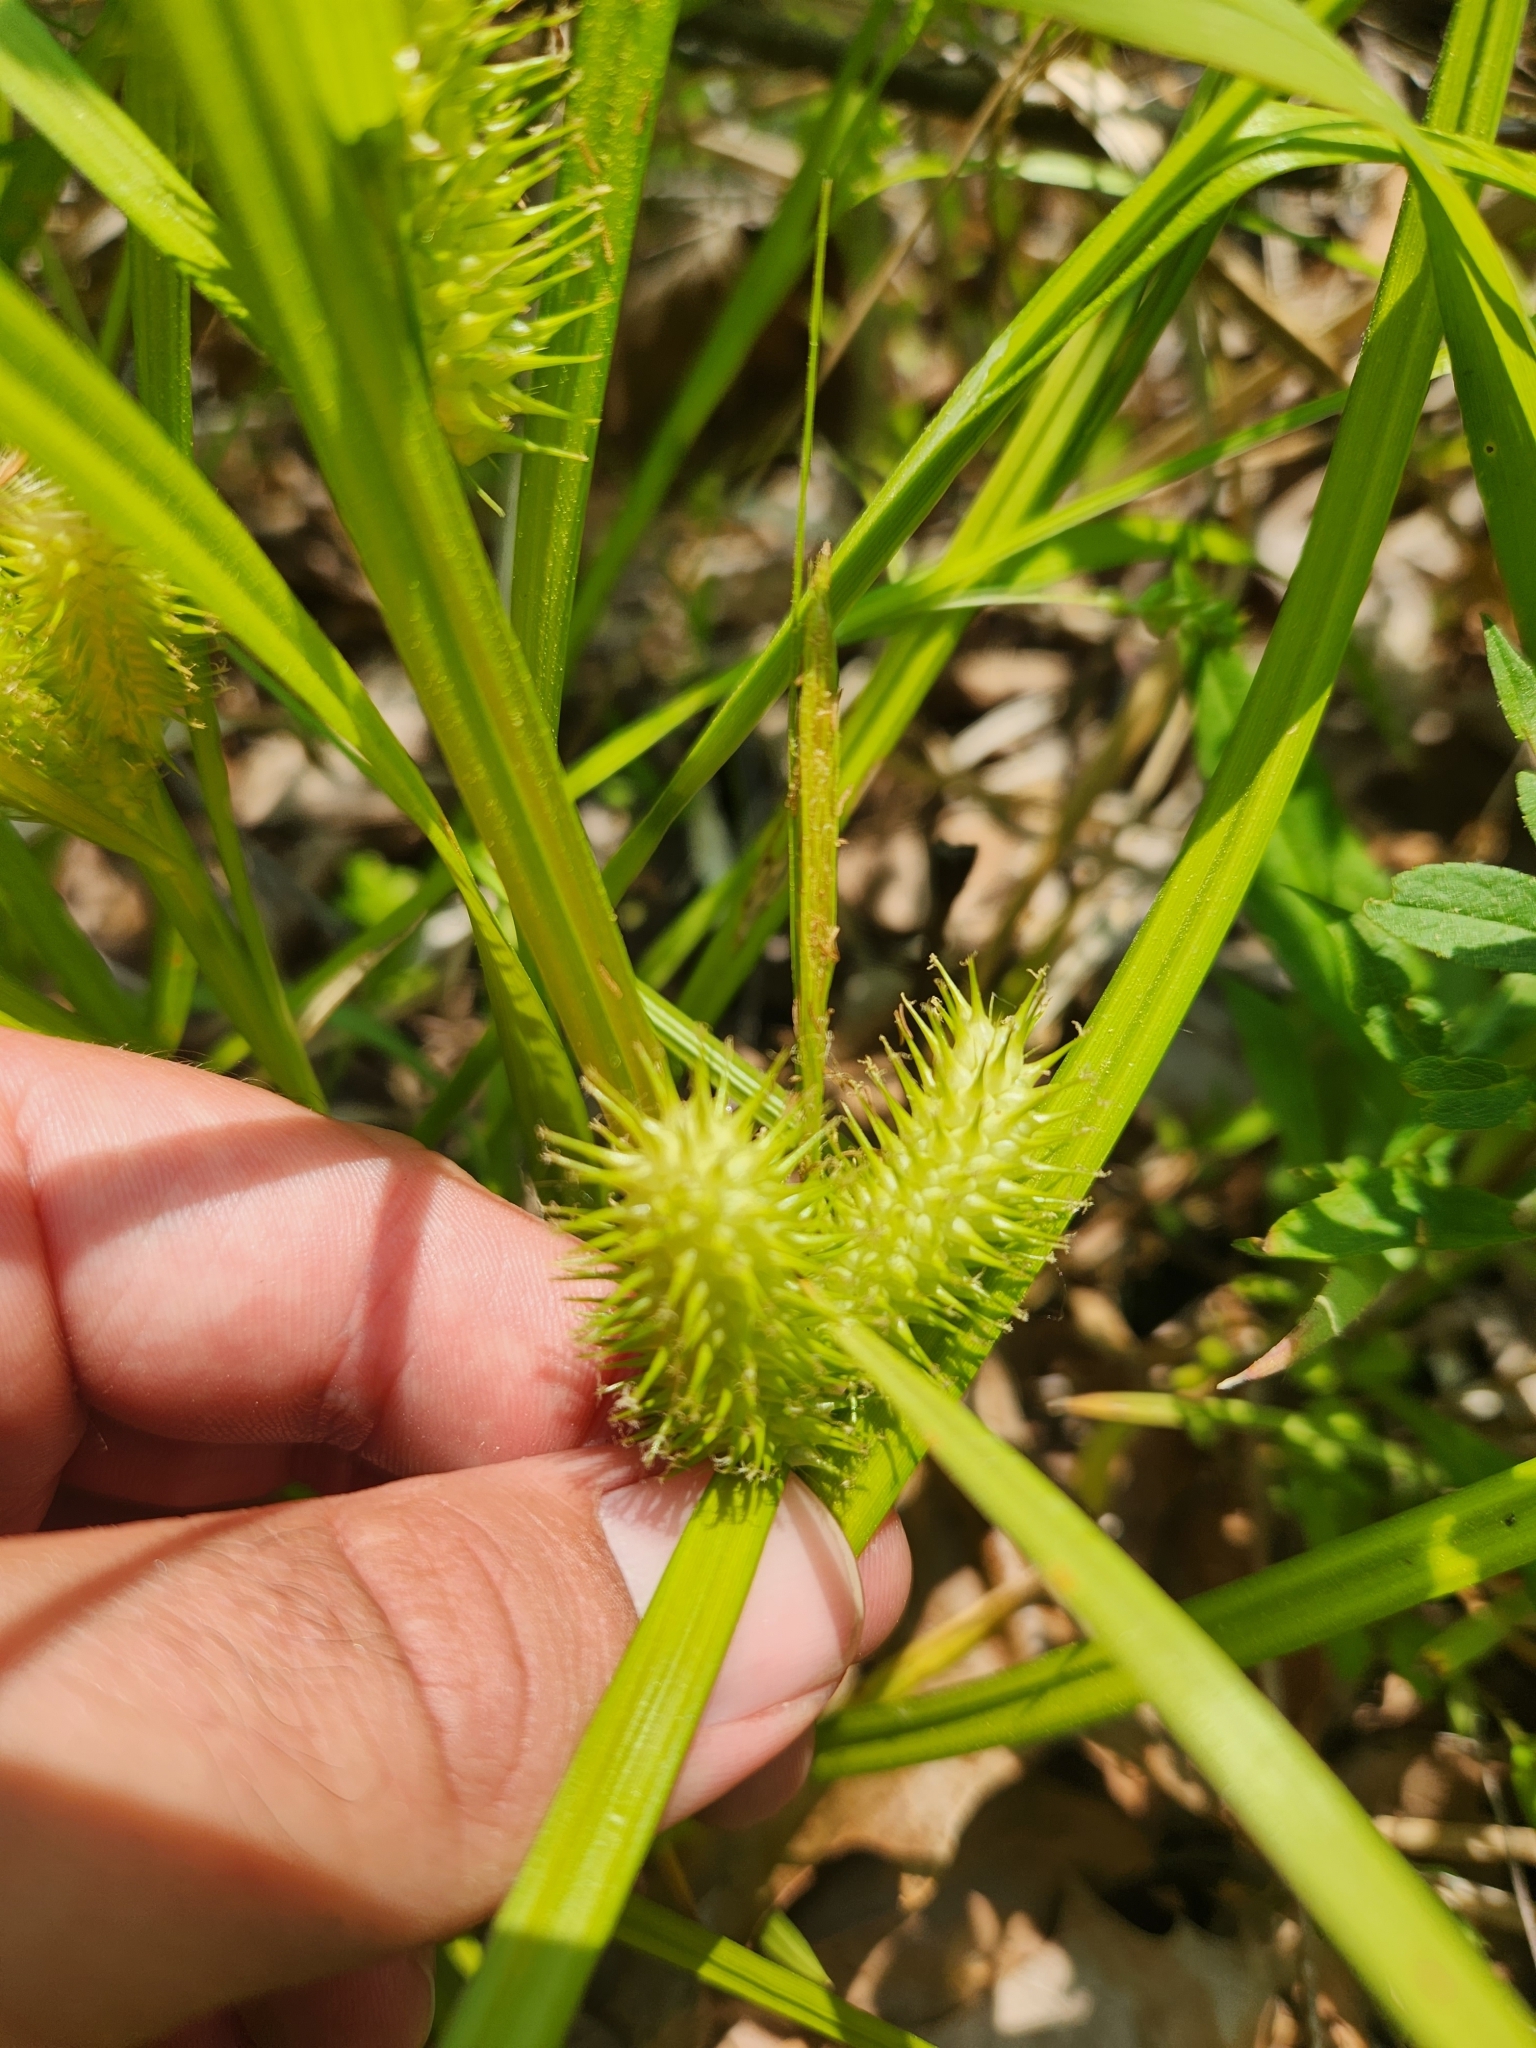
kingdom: Plantae
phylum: Tracheophyta
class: Liliopsida
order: Poales
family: Cyperaceae
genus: Carex
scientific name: Carex lurida
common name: Sallow sedge
